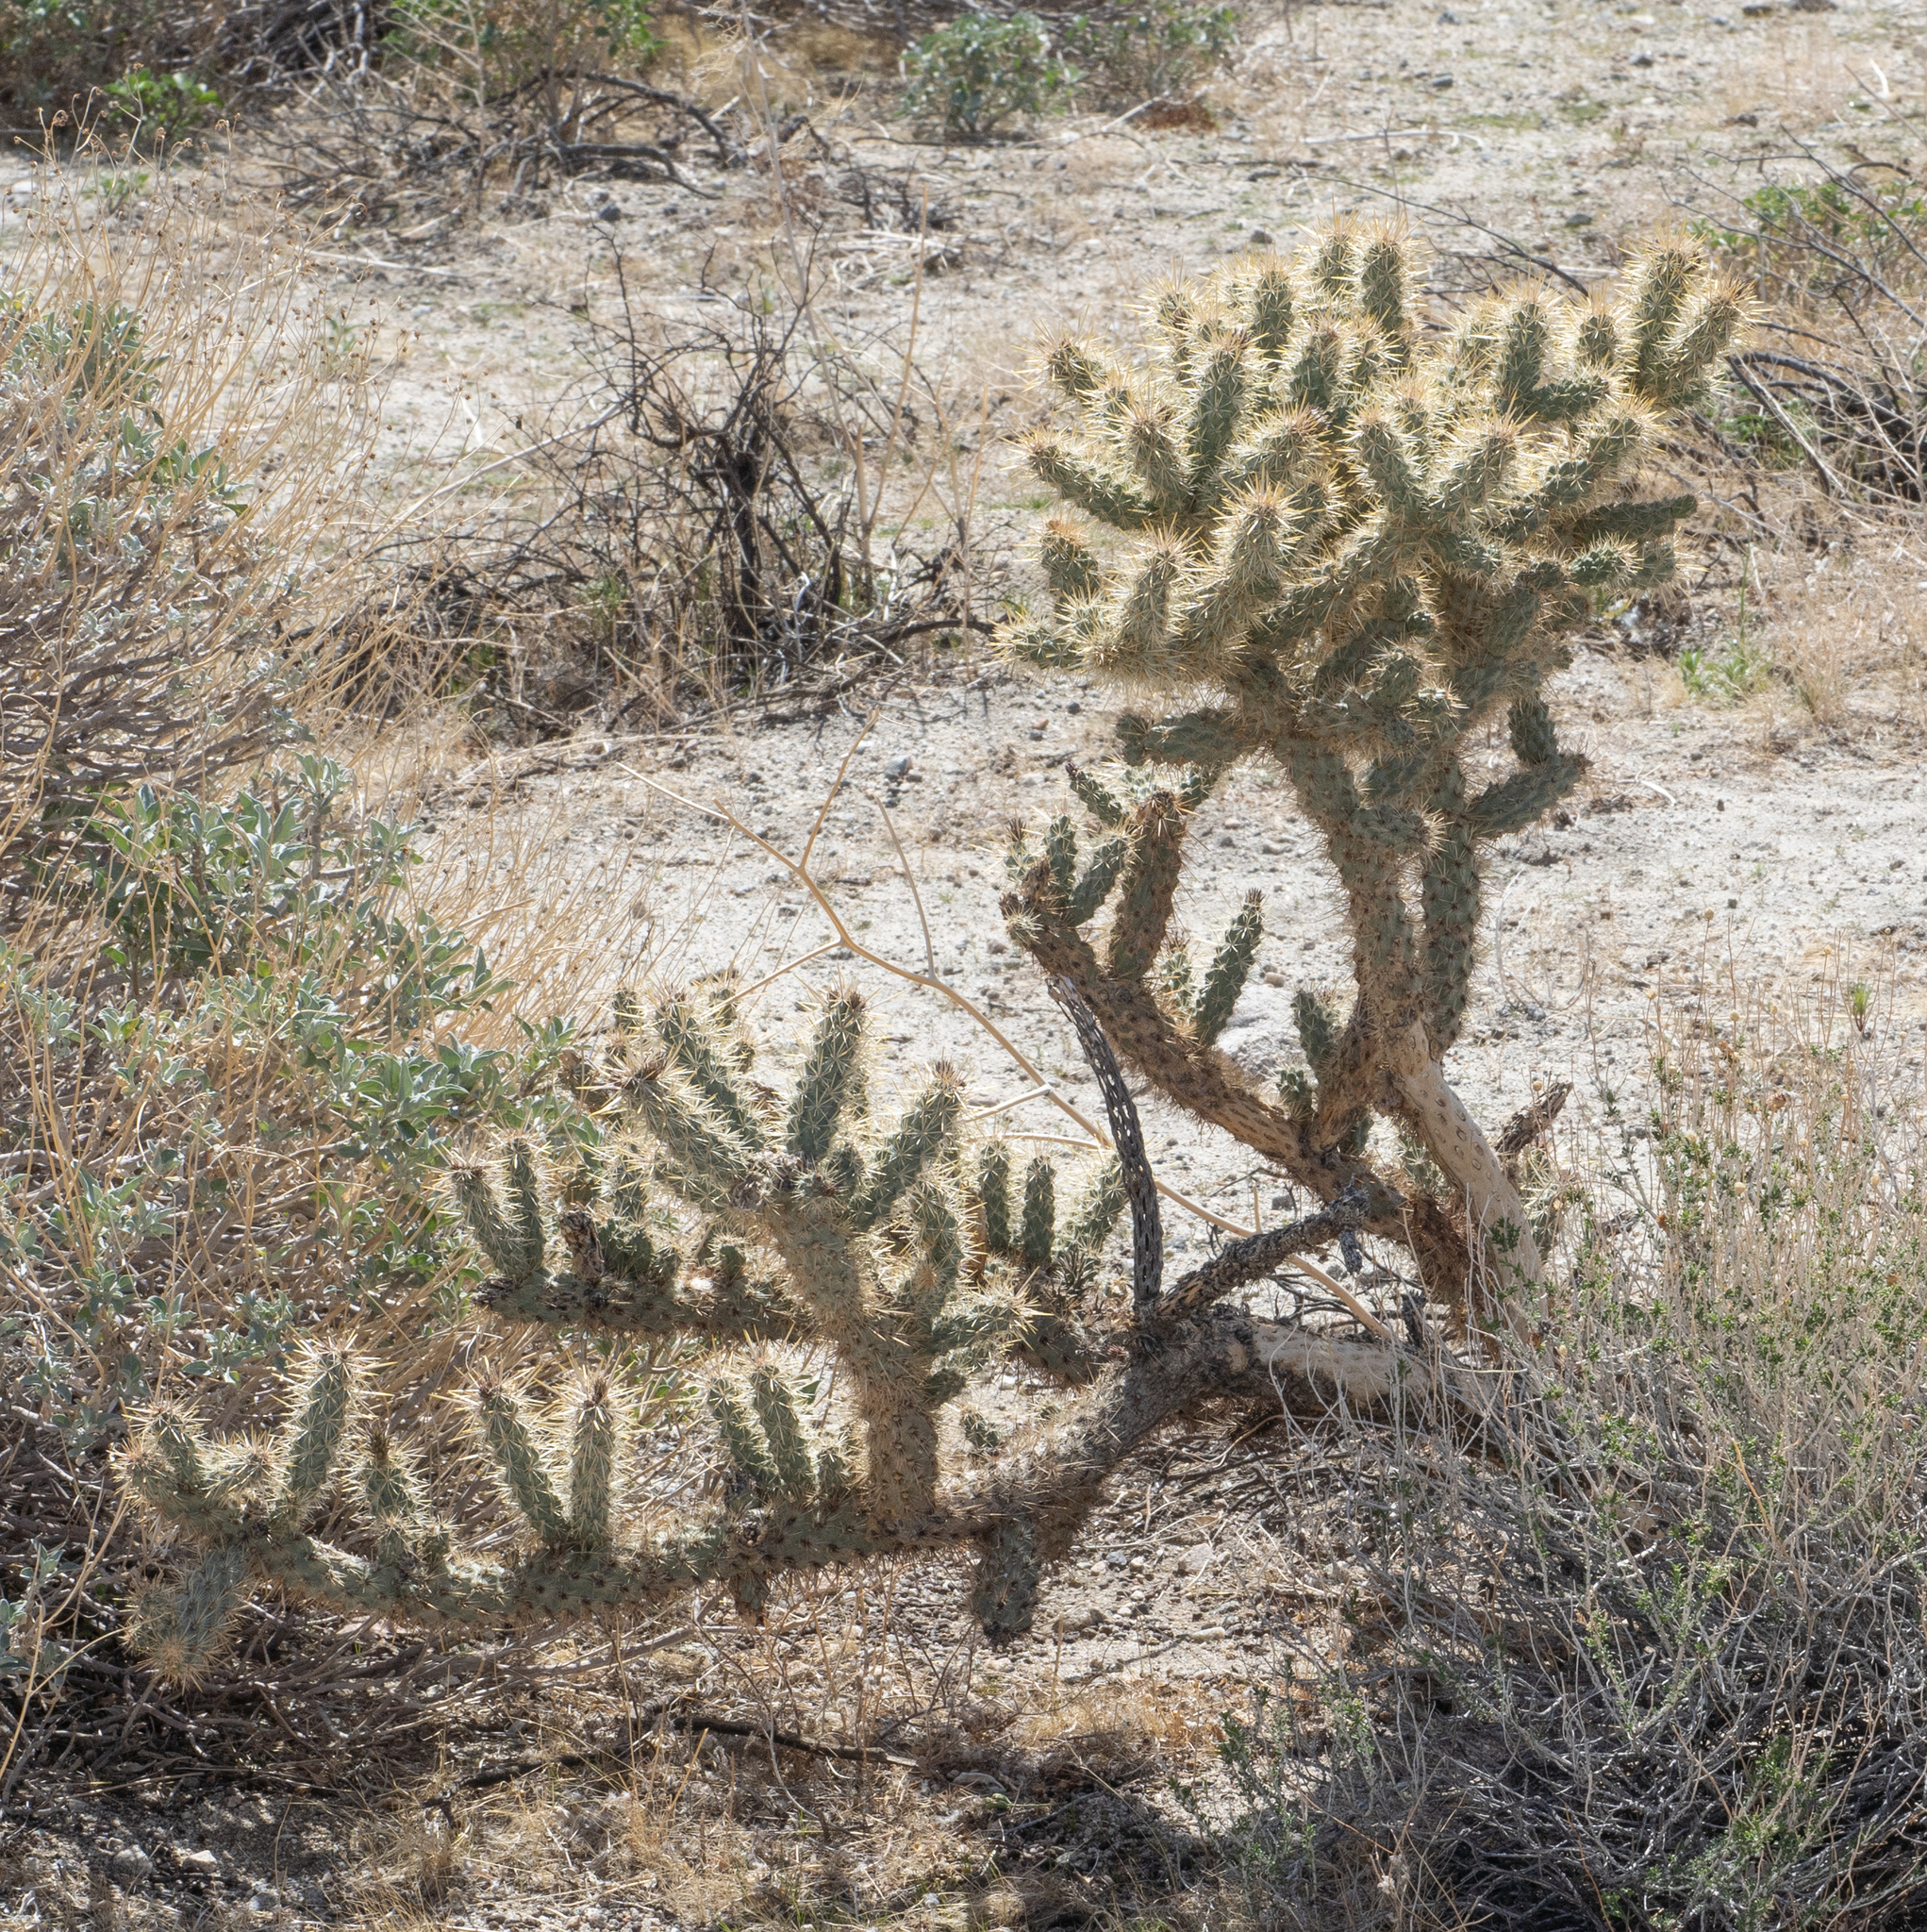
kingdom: Plantae
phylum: Tracheophyta
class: Magnoliopsida
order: Caryophyllales
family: Cactaceae
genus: Cylindropuntia
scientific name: Cylindropuntia echinocarpa
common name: Ground cholla
